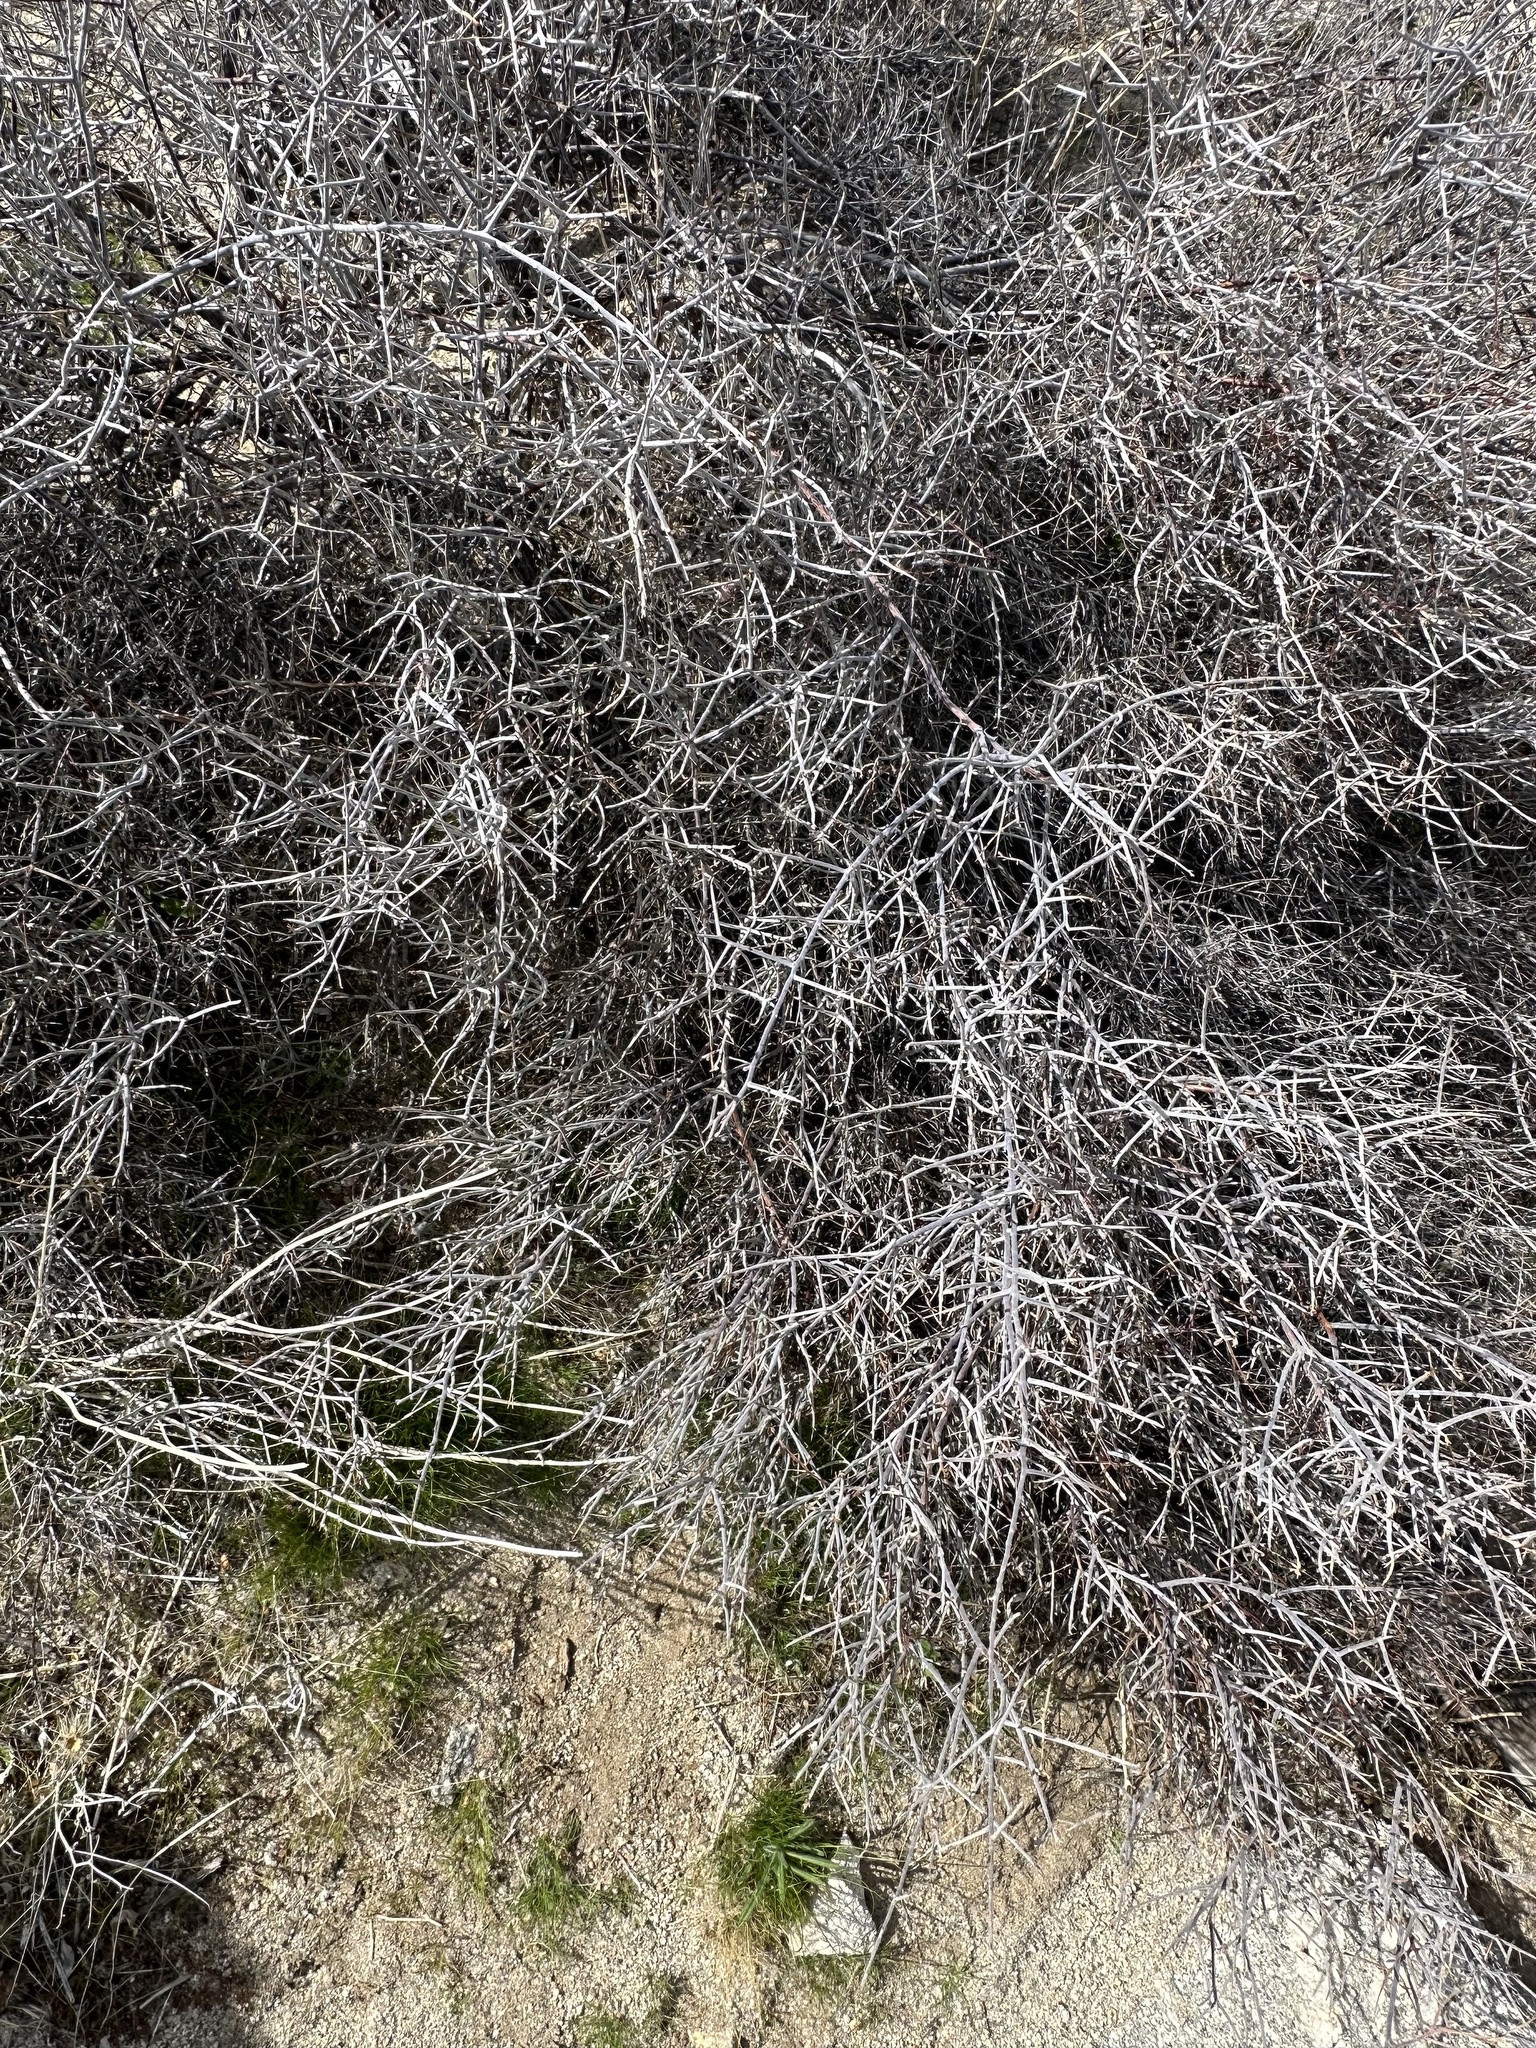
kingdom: Plantae
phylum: Tracheophyta
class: Magnoliopsida
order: Zygophyllales
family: Krameriaceae
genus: Krameria
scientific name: Krameria bicolor
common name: White ratany
